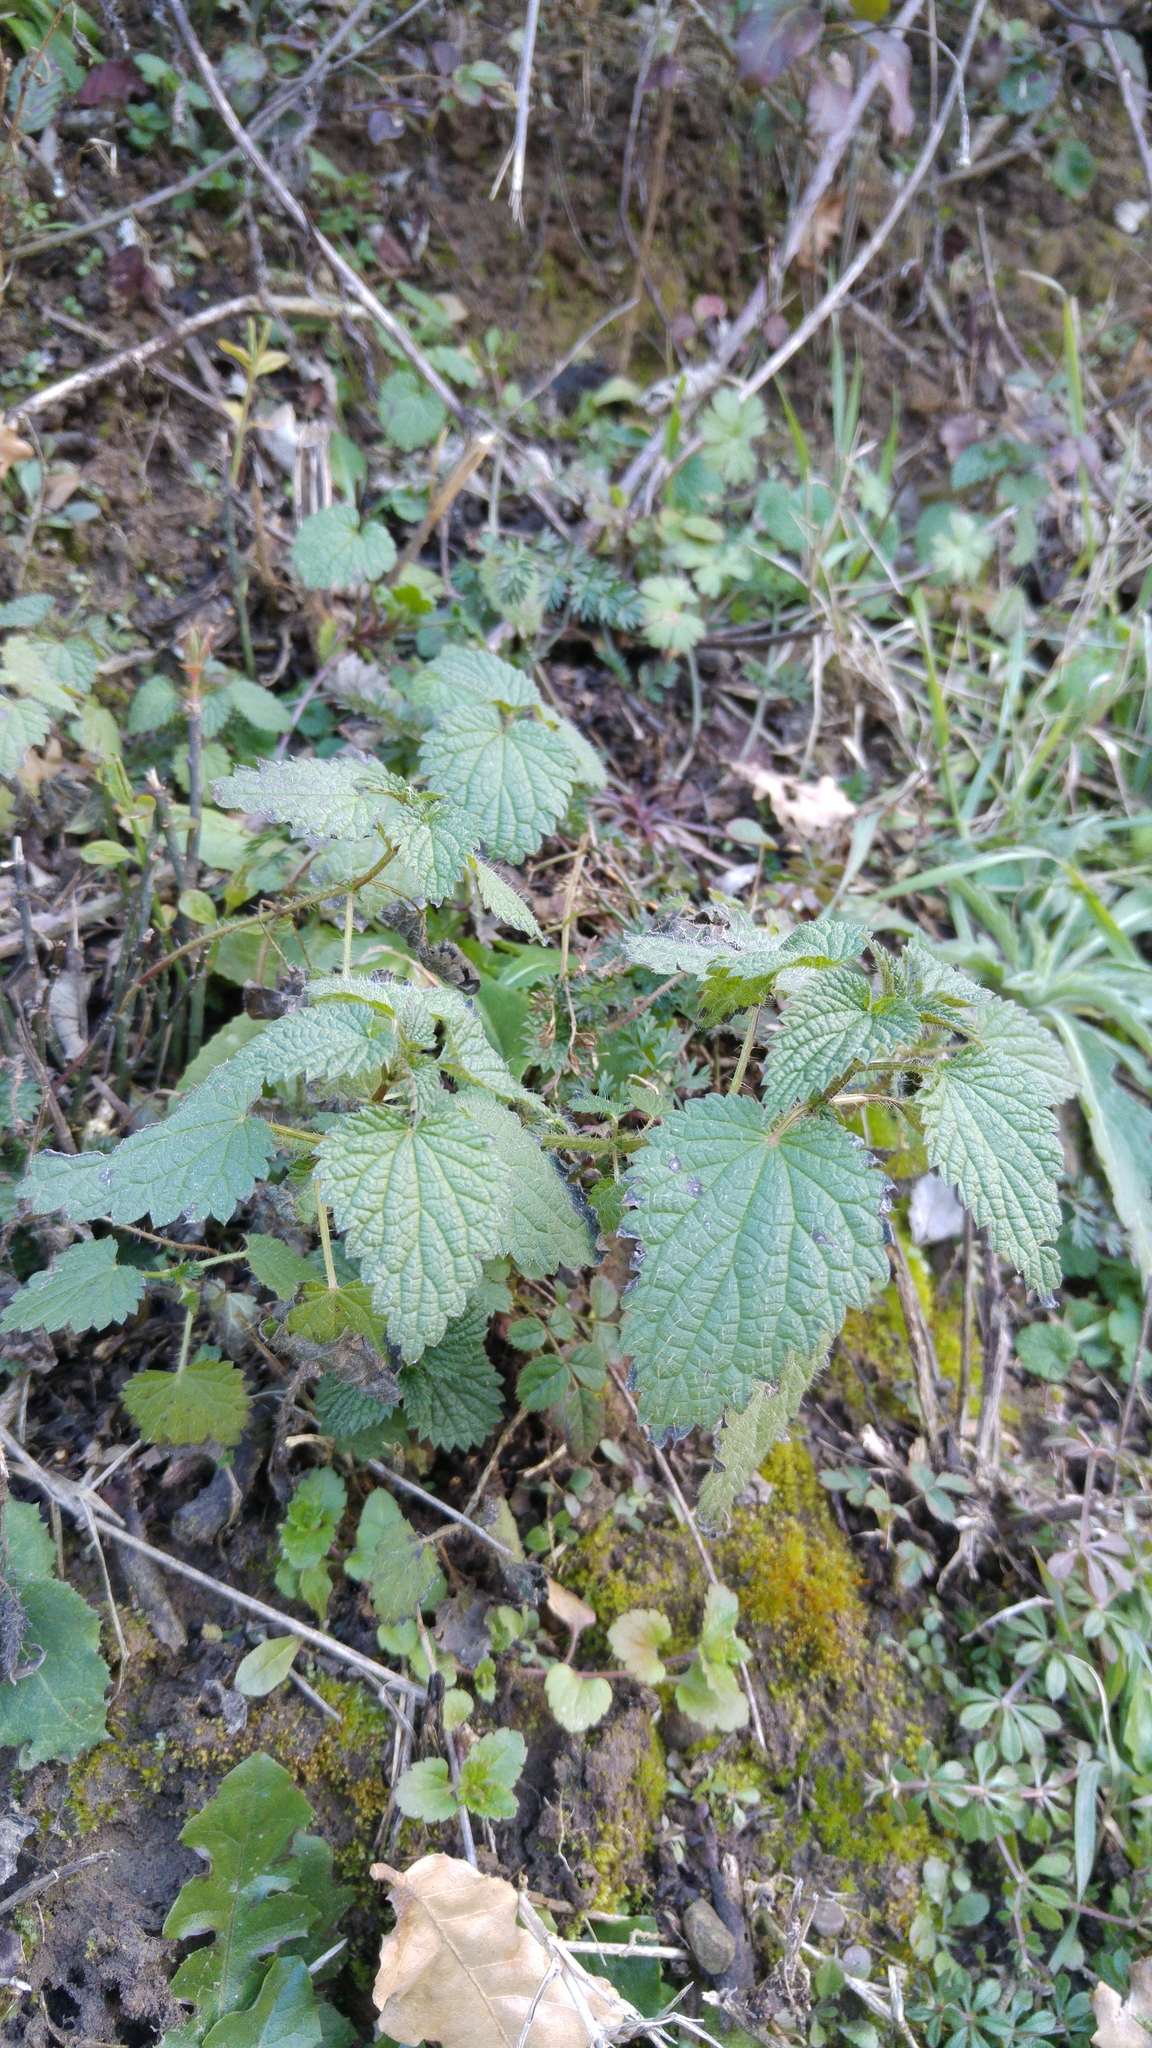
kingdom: Plantae
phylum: Tracheophyta
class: Magnoliopsida
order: Rosales
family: Urticaceae
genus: Urtica
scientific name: Urtica dioica
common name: Common nettle
